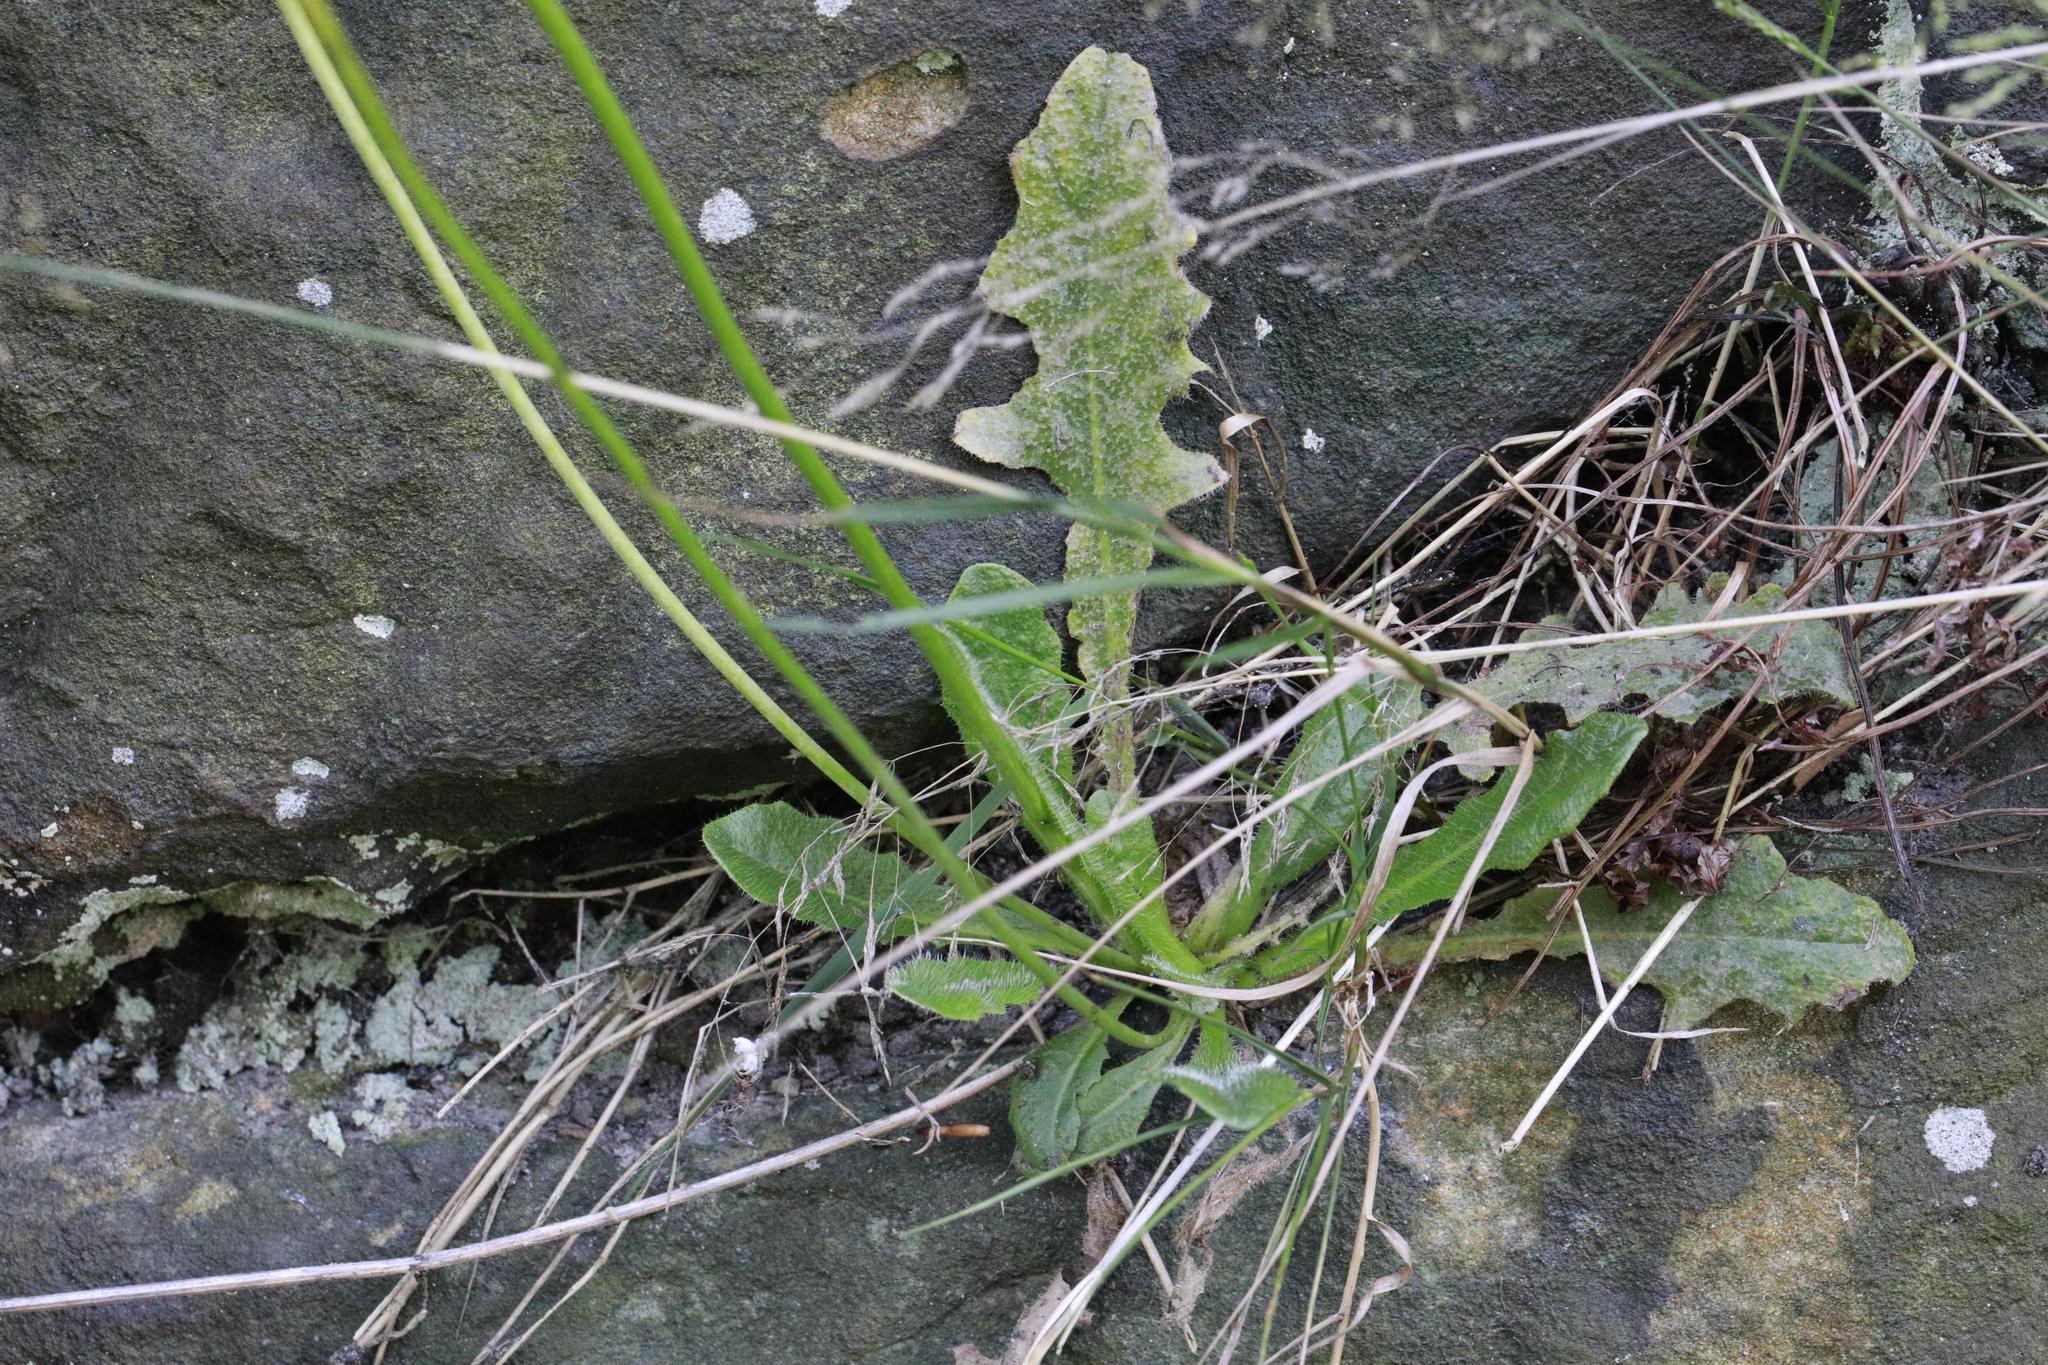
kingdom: Plantae
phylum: Tracheophyta
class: Magnoliopsida
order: Asterales
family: Asteraceae
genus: Hypochaeris
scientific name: Hypochaeris radicata
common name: Flatweed
